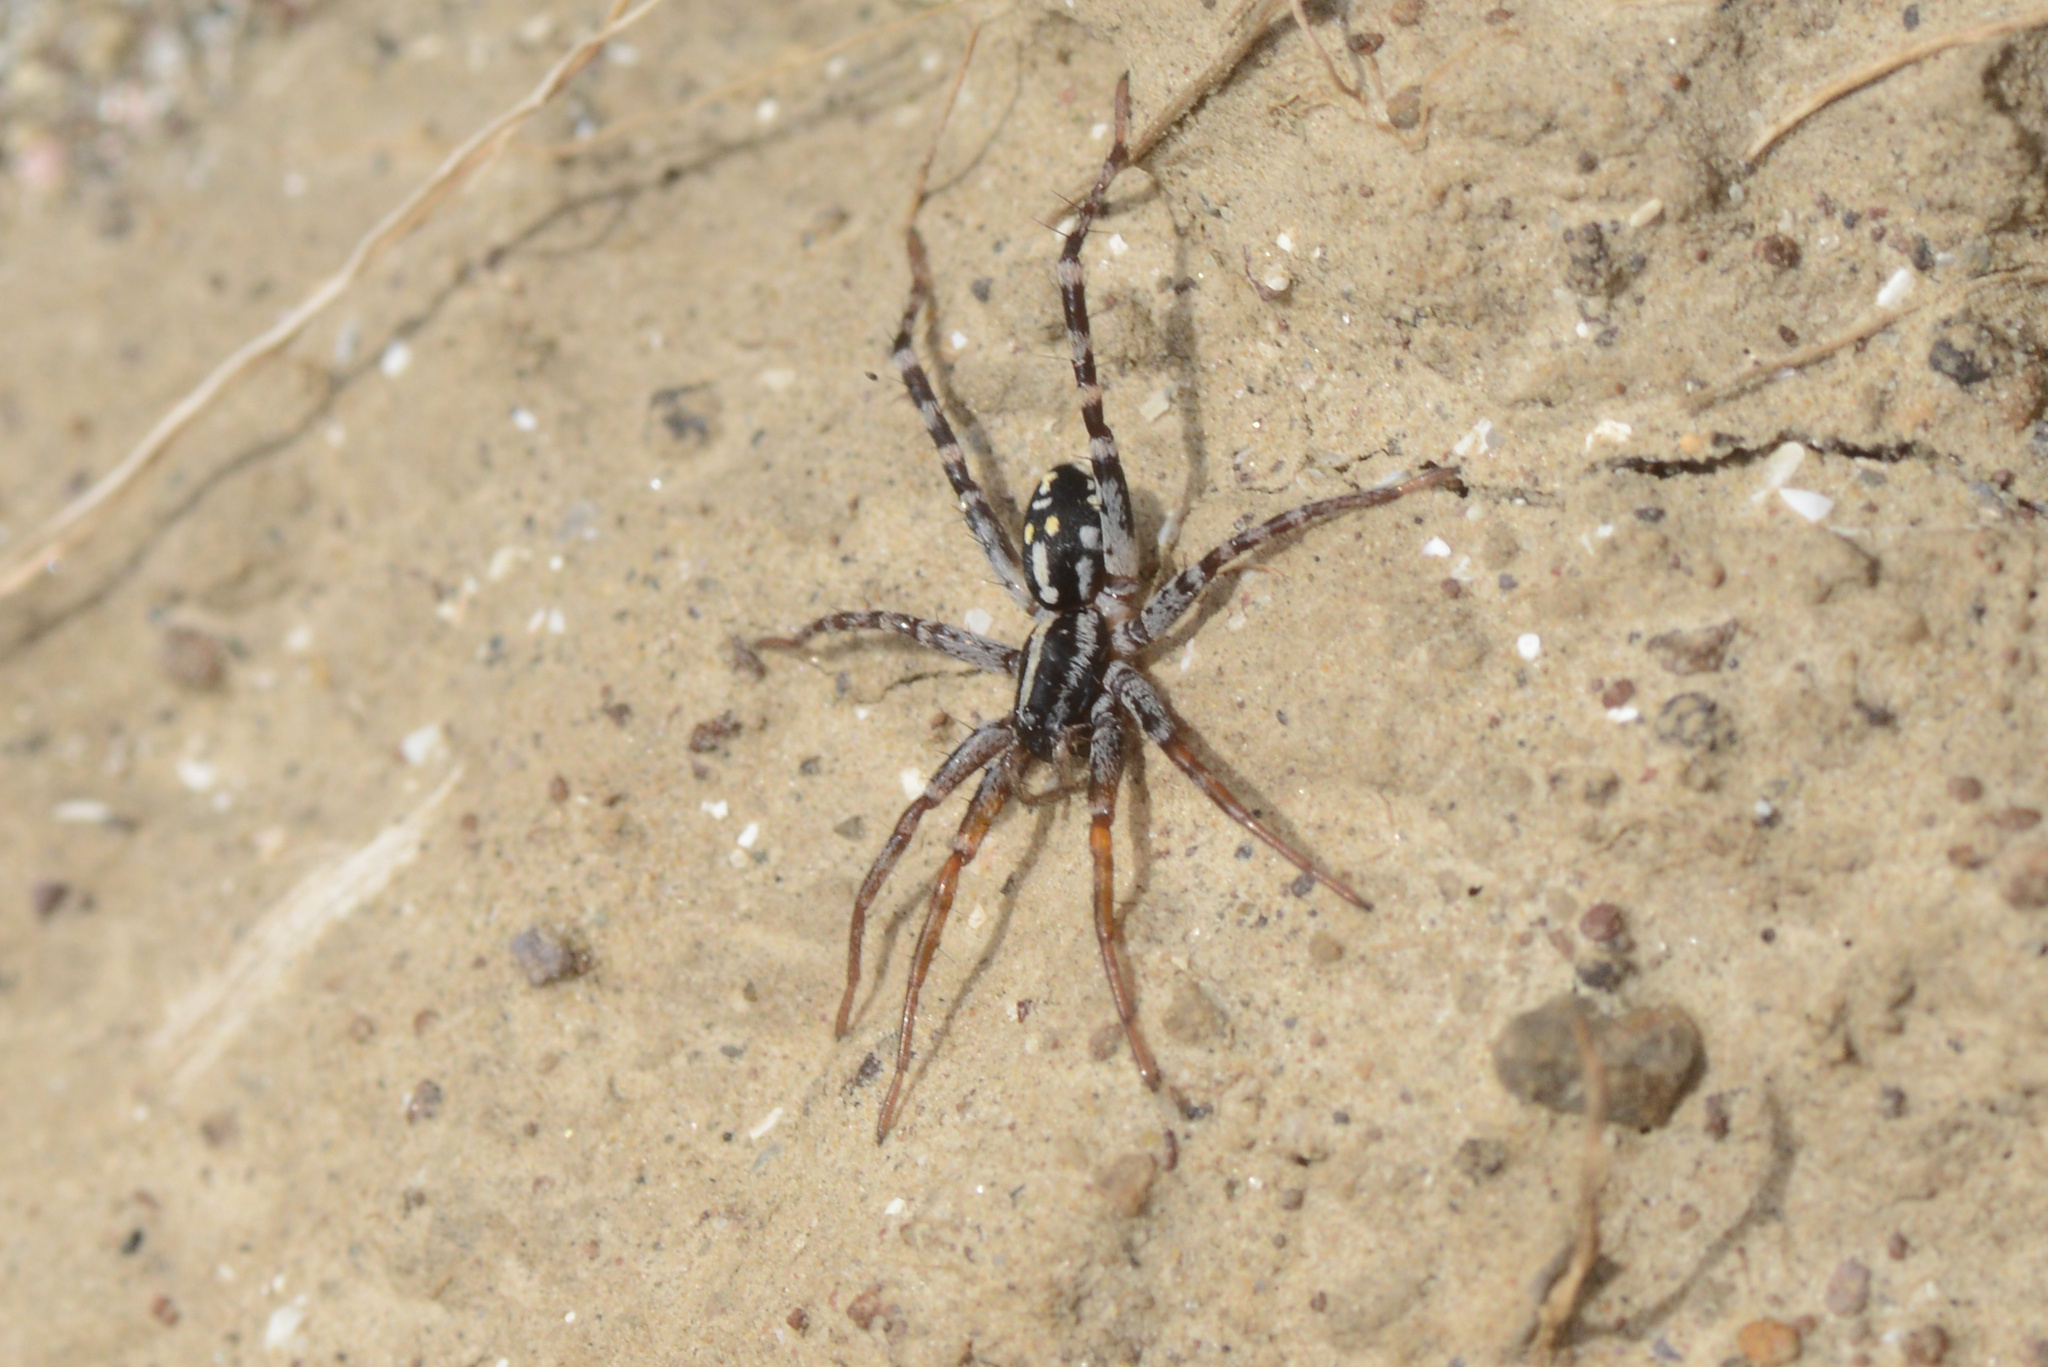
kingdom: Animalia
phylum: Arthropoda
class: Arachnida
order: Araneae
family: Corinnidae
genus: Nyssus
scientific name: Nyssus coloripes
